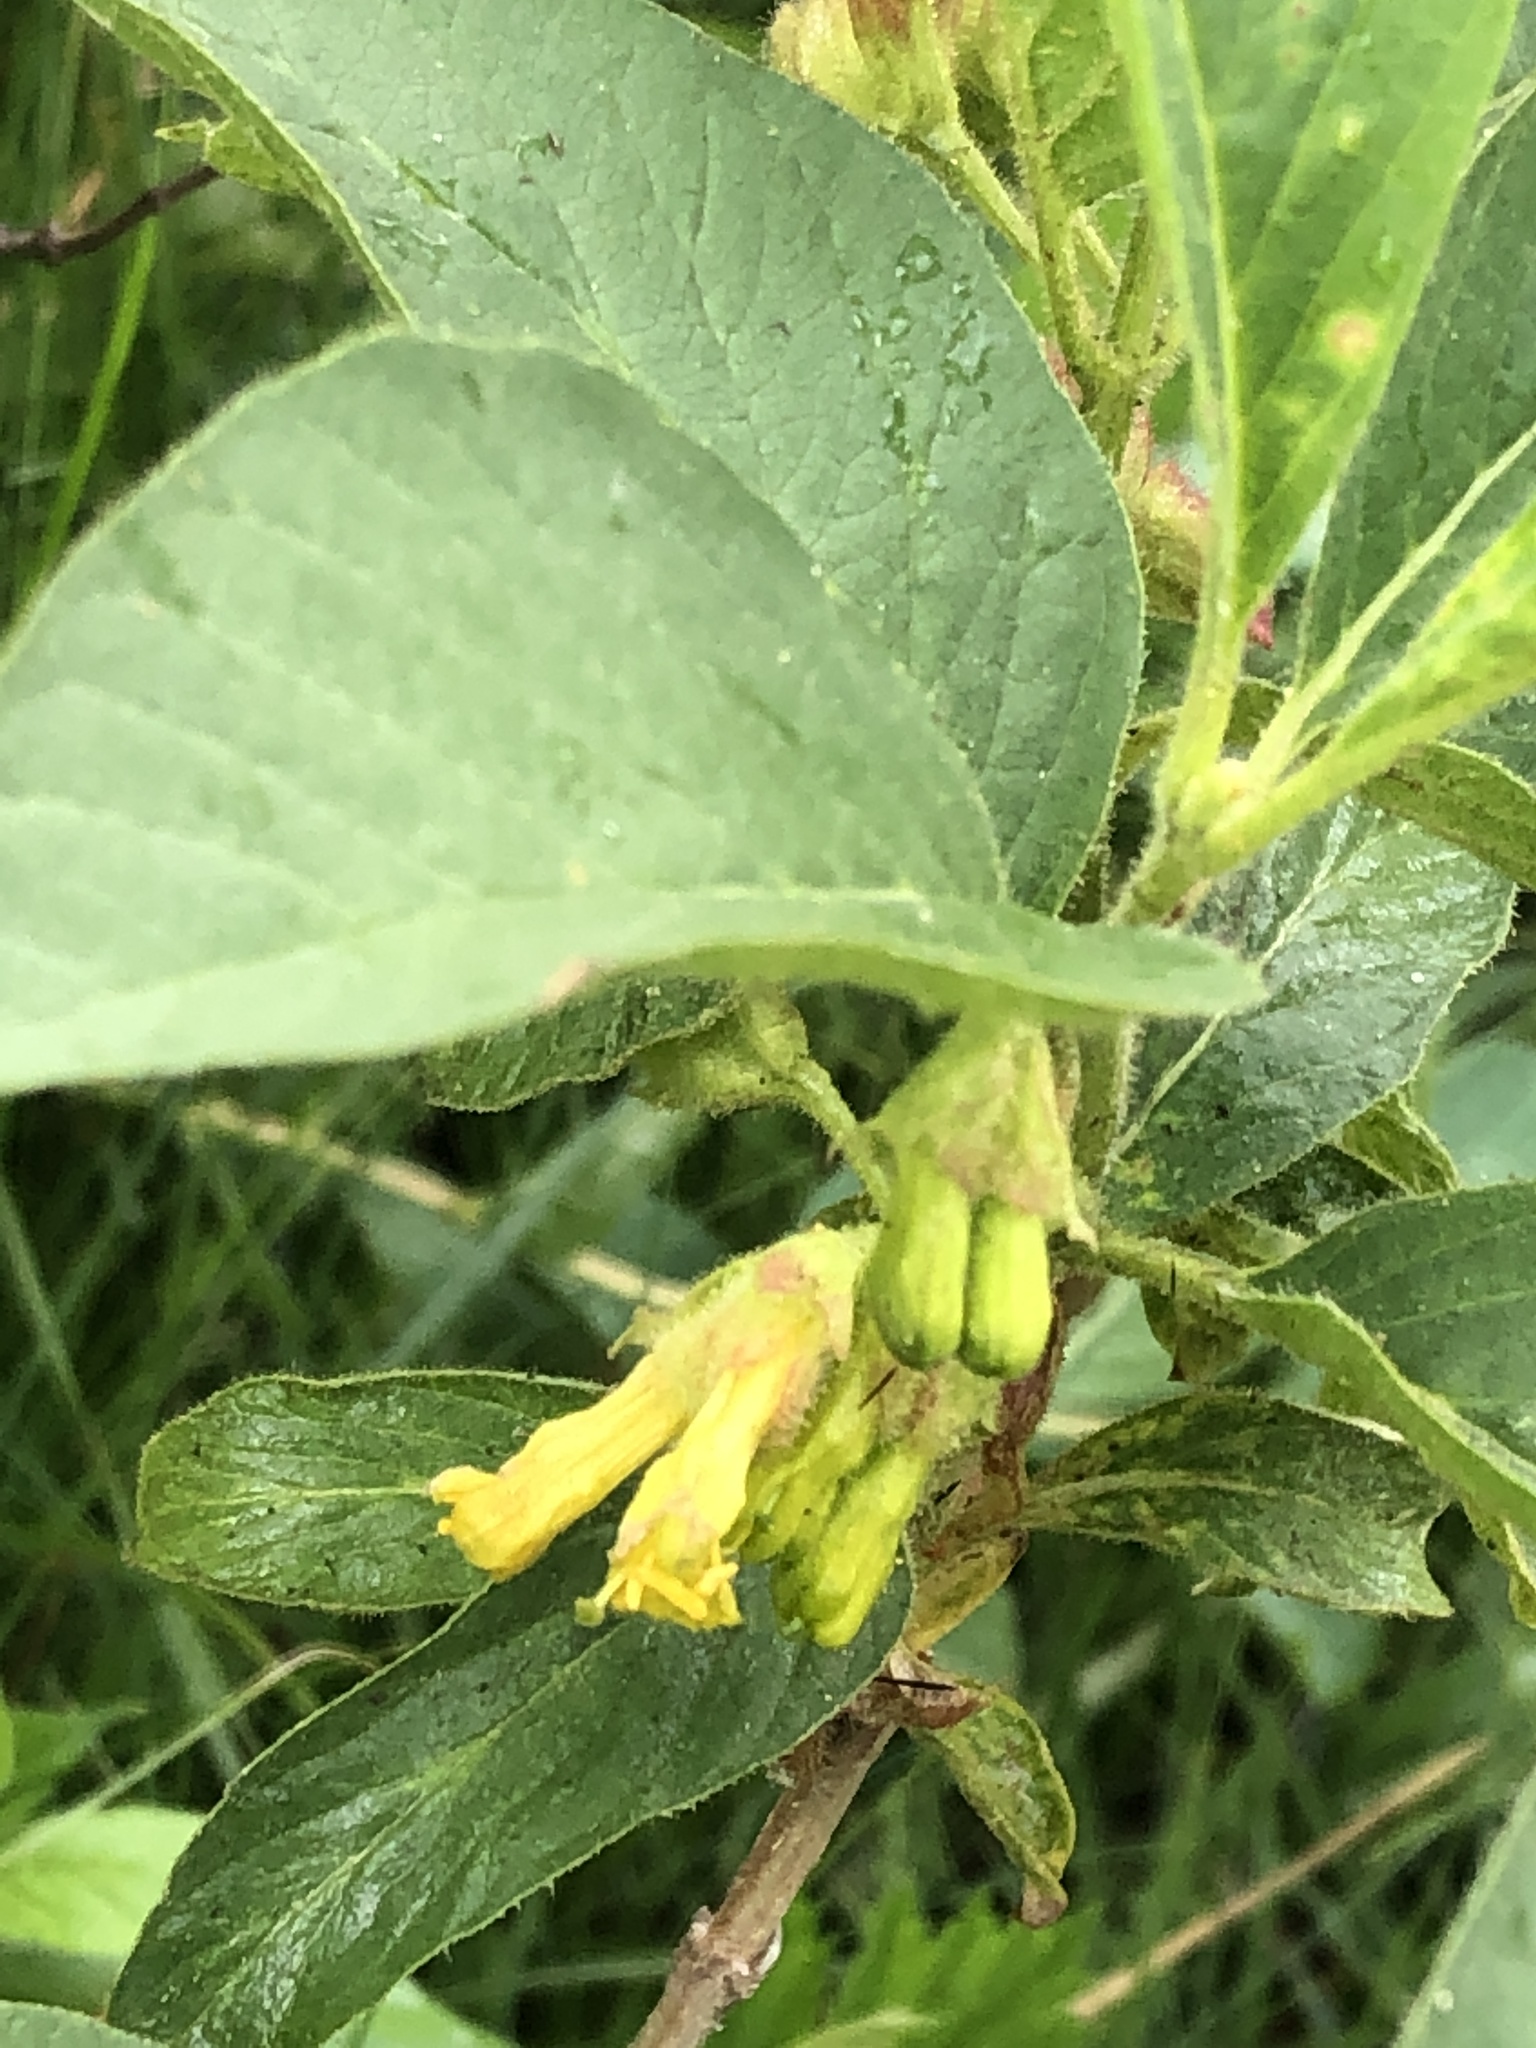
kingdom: Plantae
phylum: Tracheophyta
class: Magnoliopsida
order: Dipsacales
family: Caprifoliaceae
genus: Lonicera
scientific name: Lonicera involucrata
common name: Californian honeysuckle
